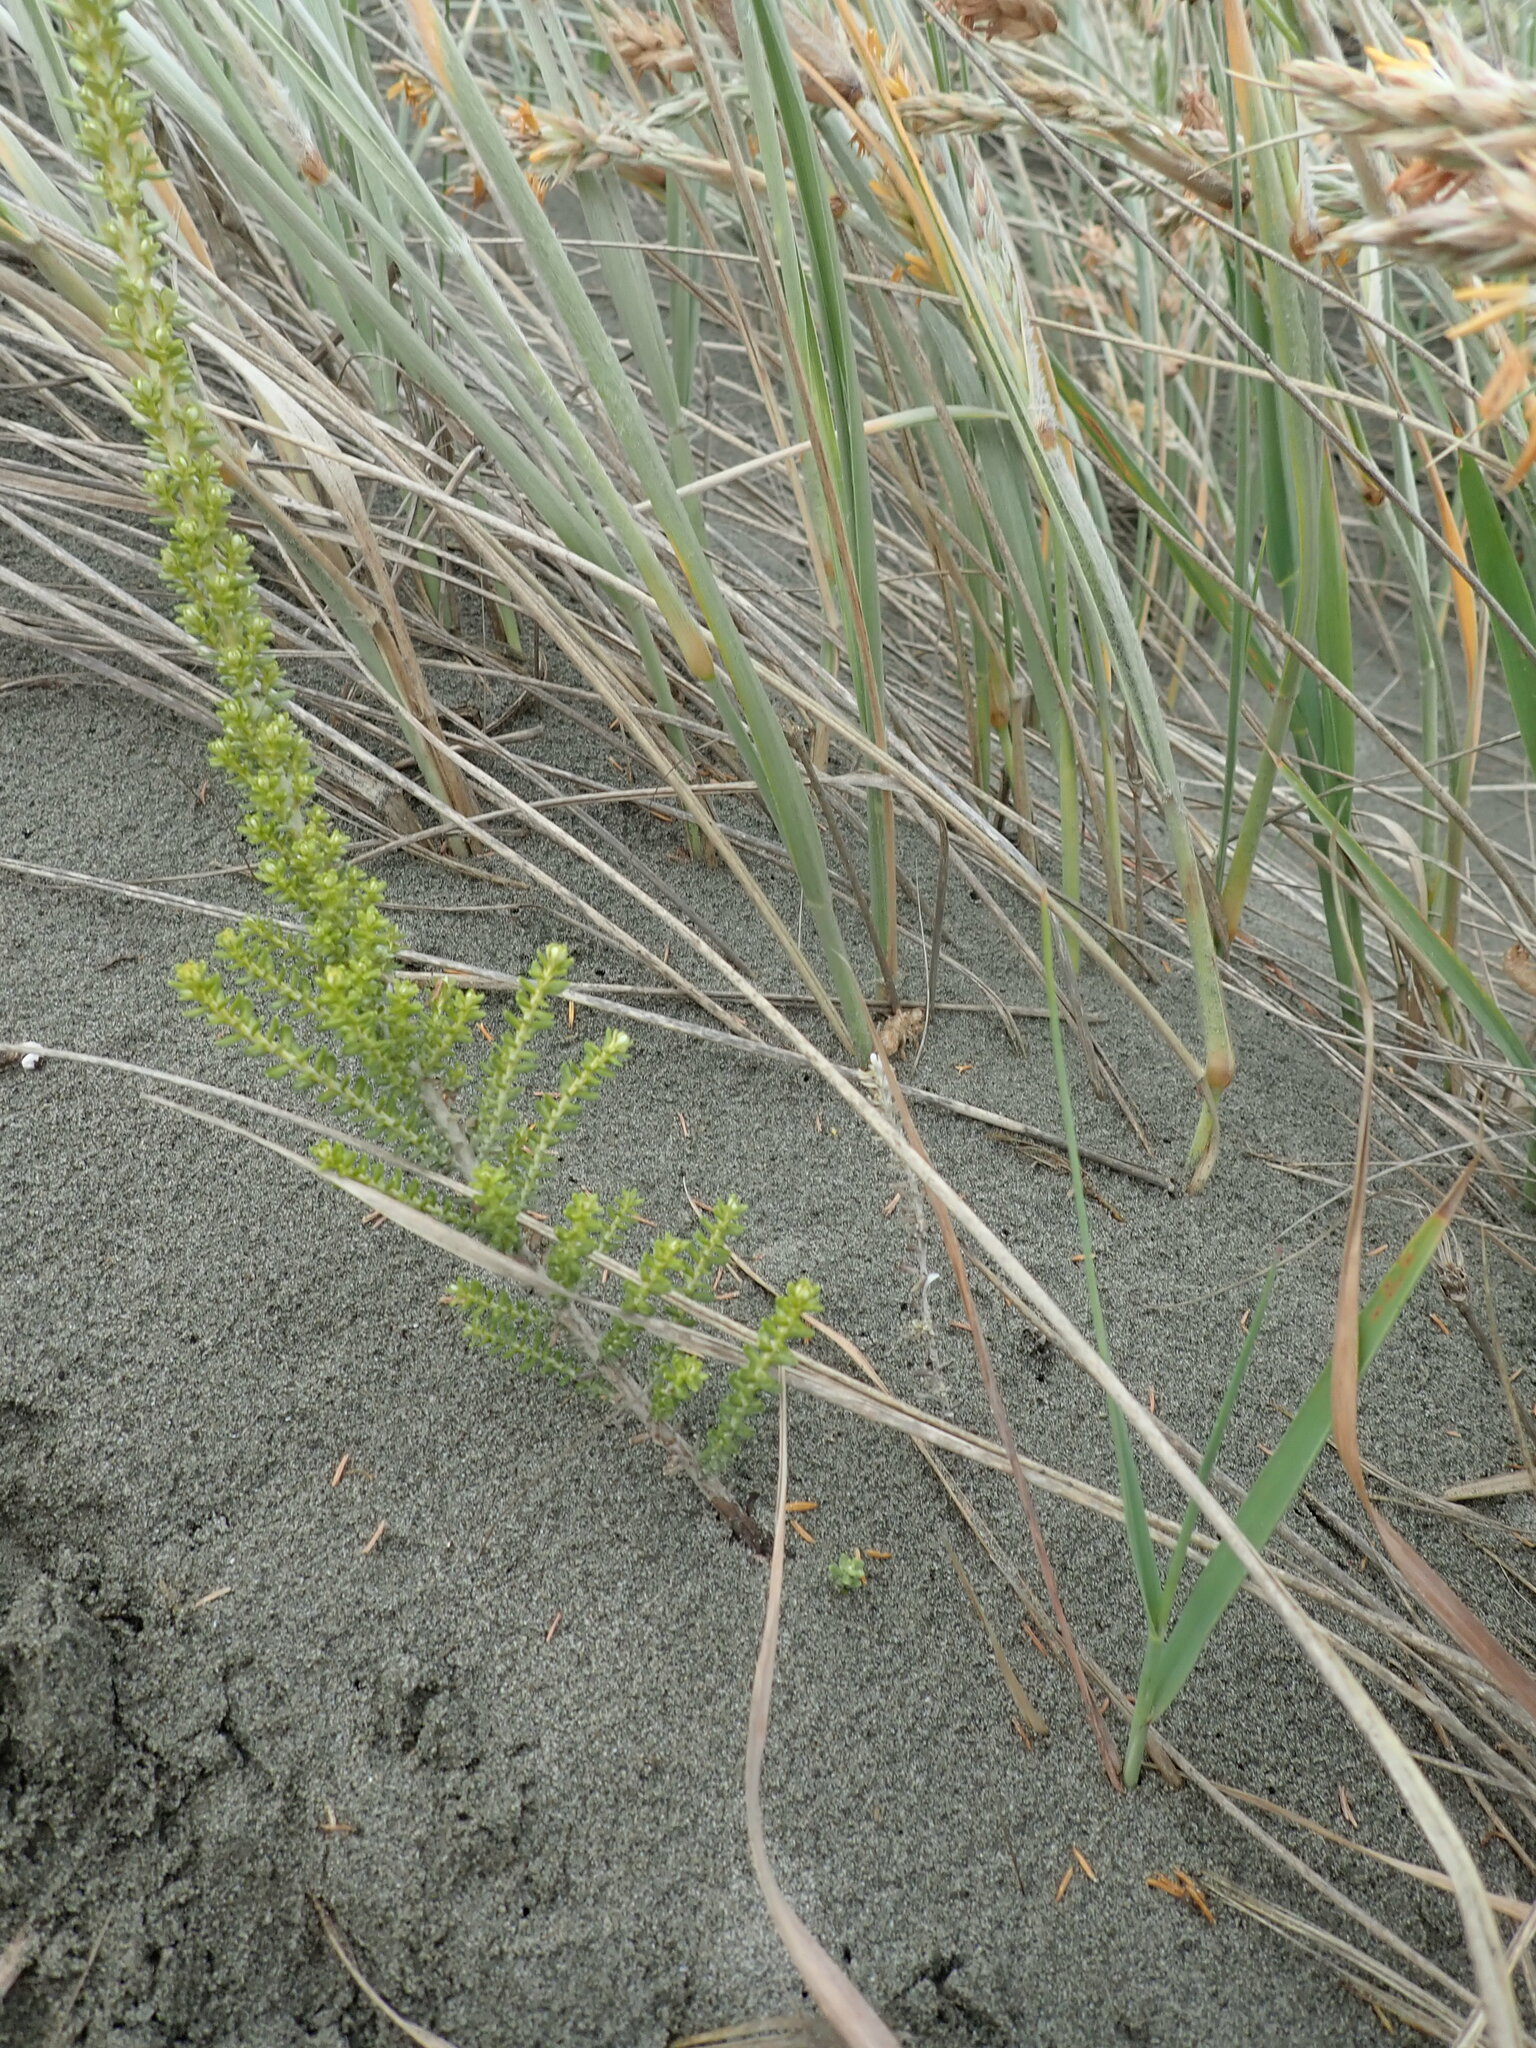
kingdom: Plantae
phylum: Tracheophyta
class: Magnoliopsida
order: Asterales
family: Asteraceae
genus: Ozothamnus
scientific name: Ozothamnus leptophyllus
